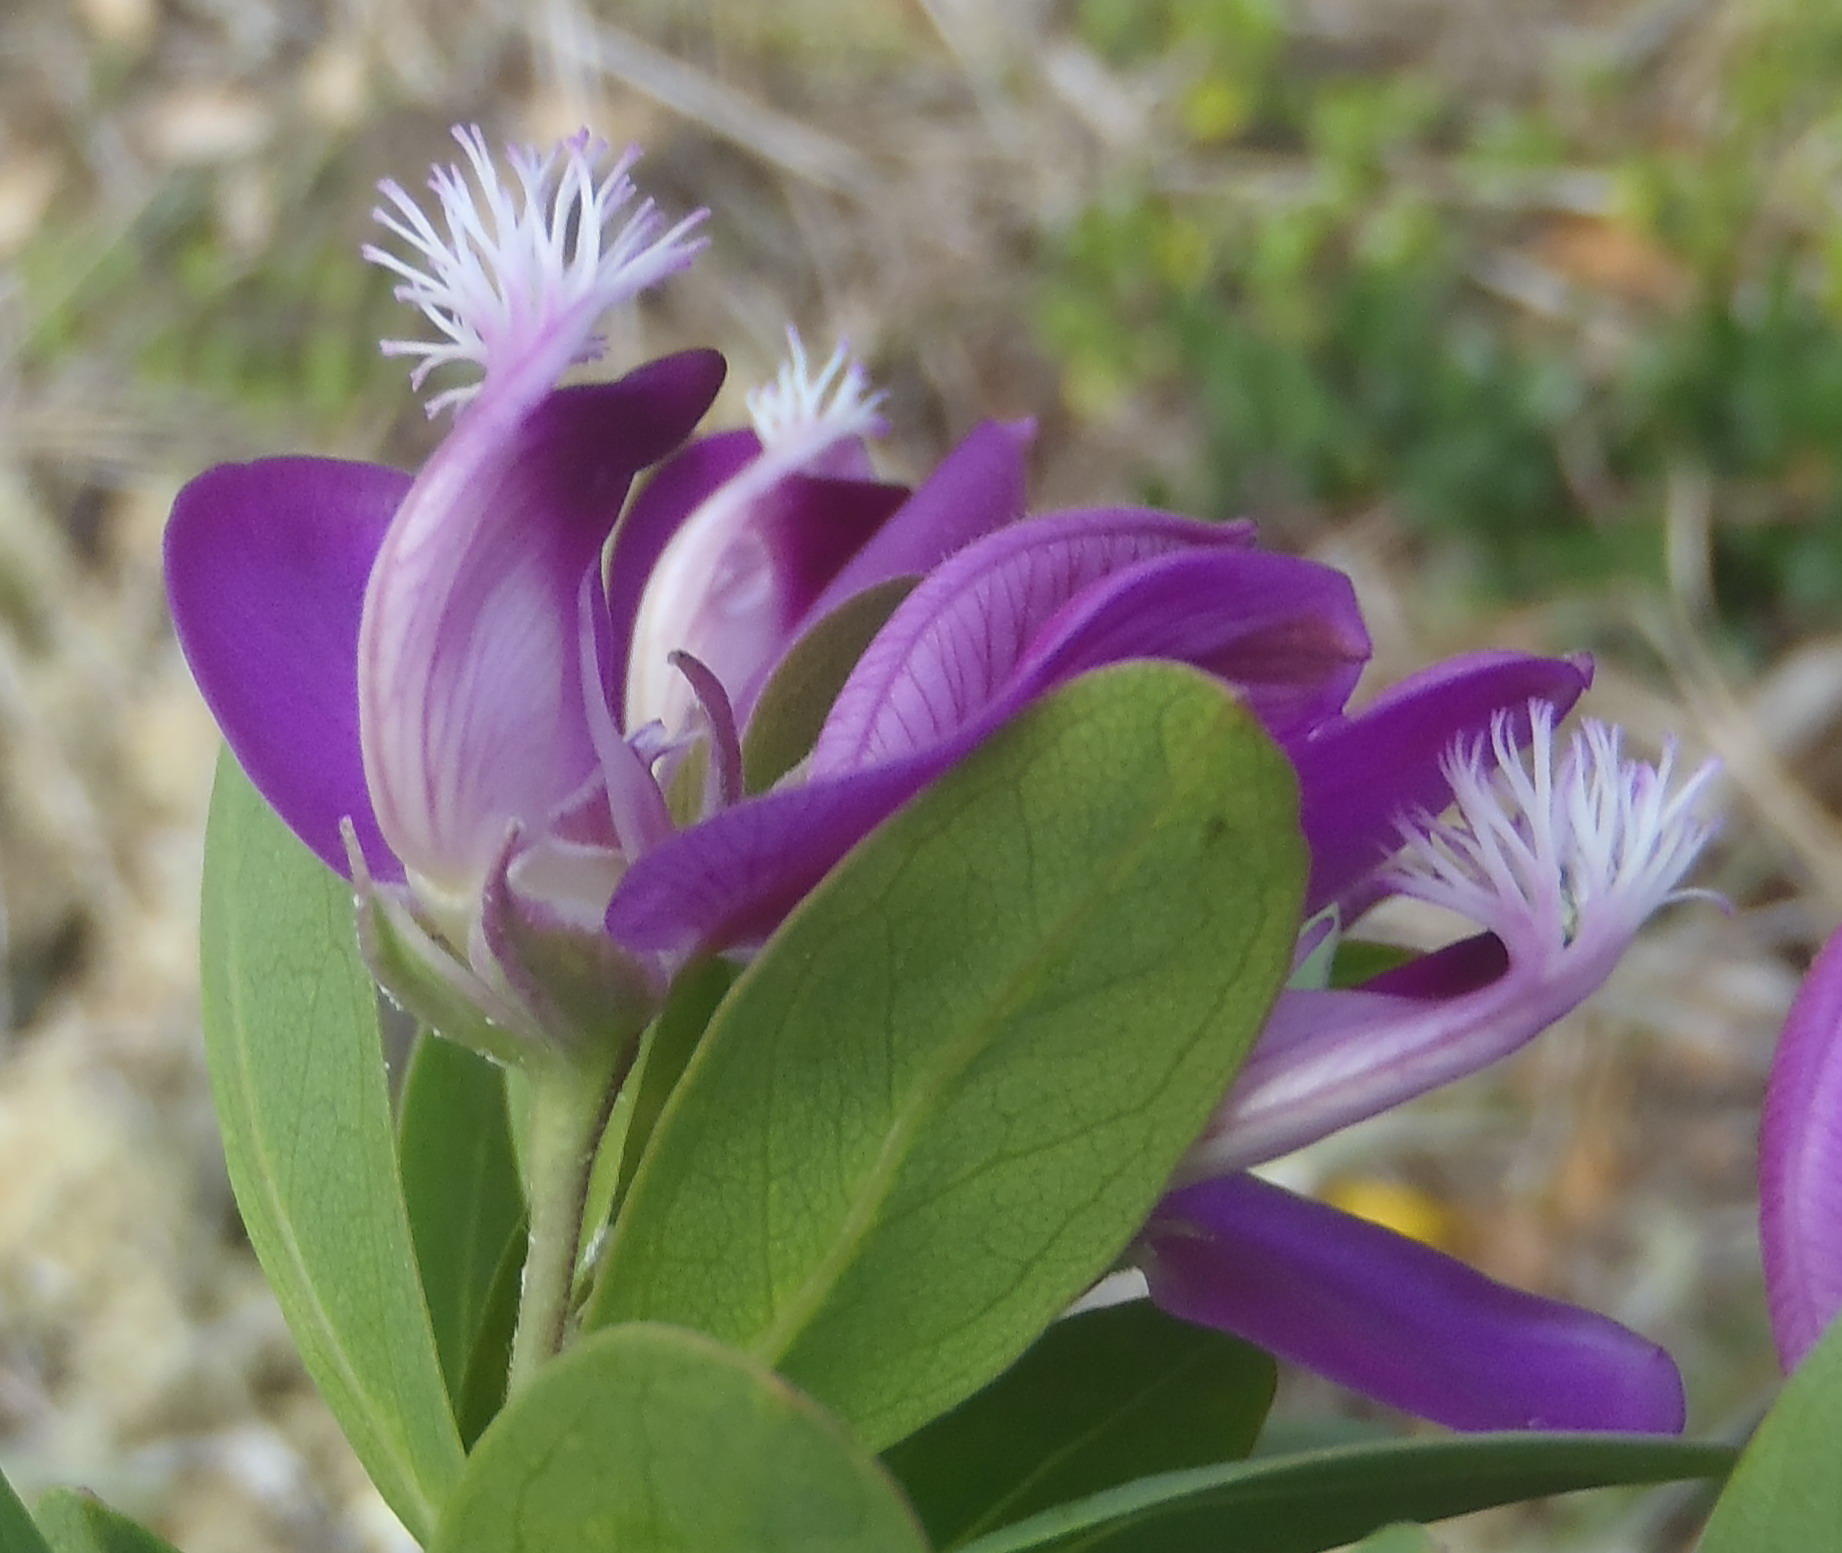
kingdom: Plantae
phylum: Tracheophyta
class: Magnoliopsida
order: Fabales
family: Polygalaceae
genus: Polygala
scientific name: Polygala myrtifolia
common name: Myrtle-leaf milkwort
